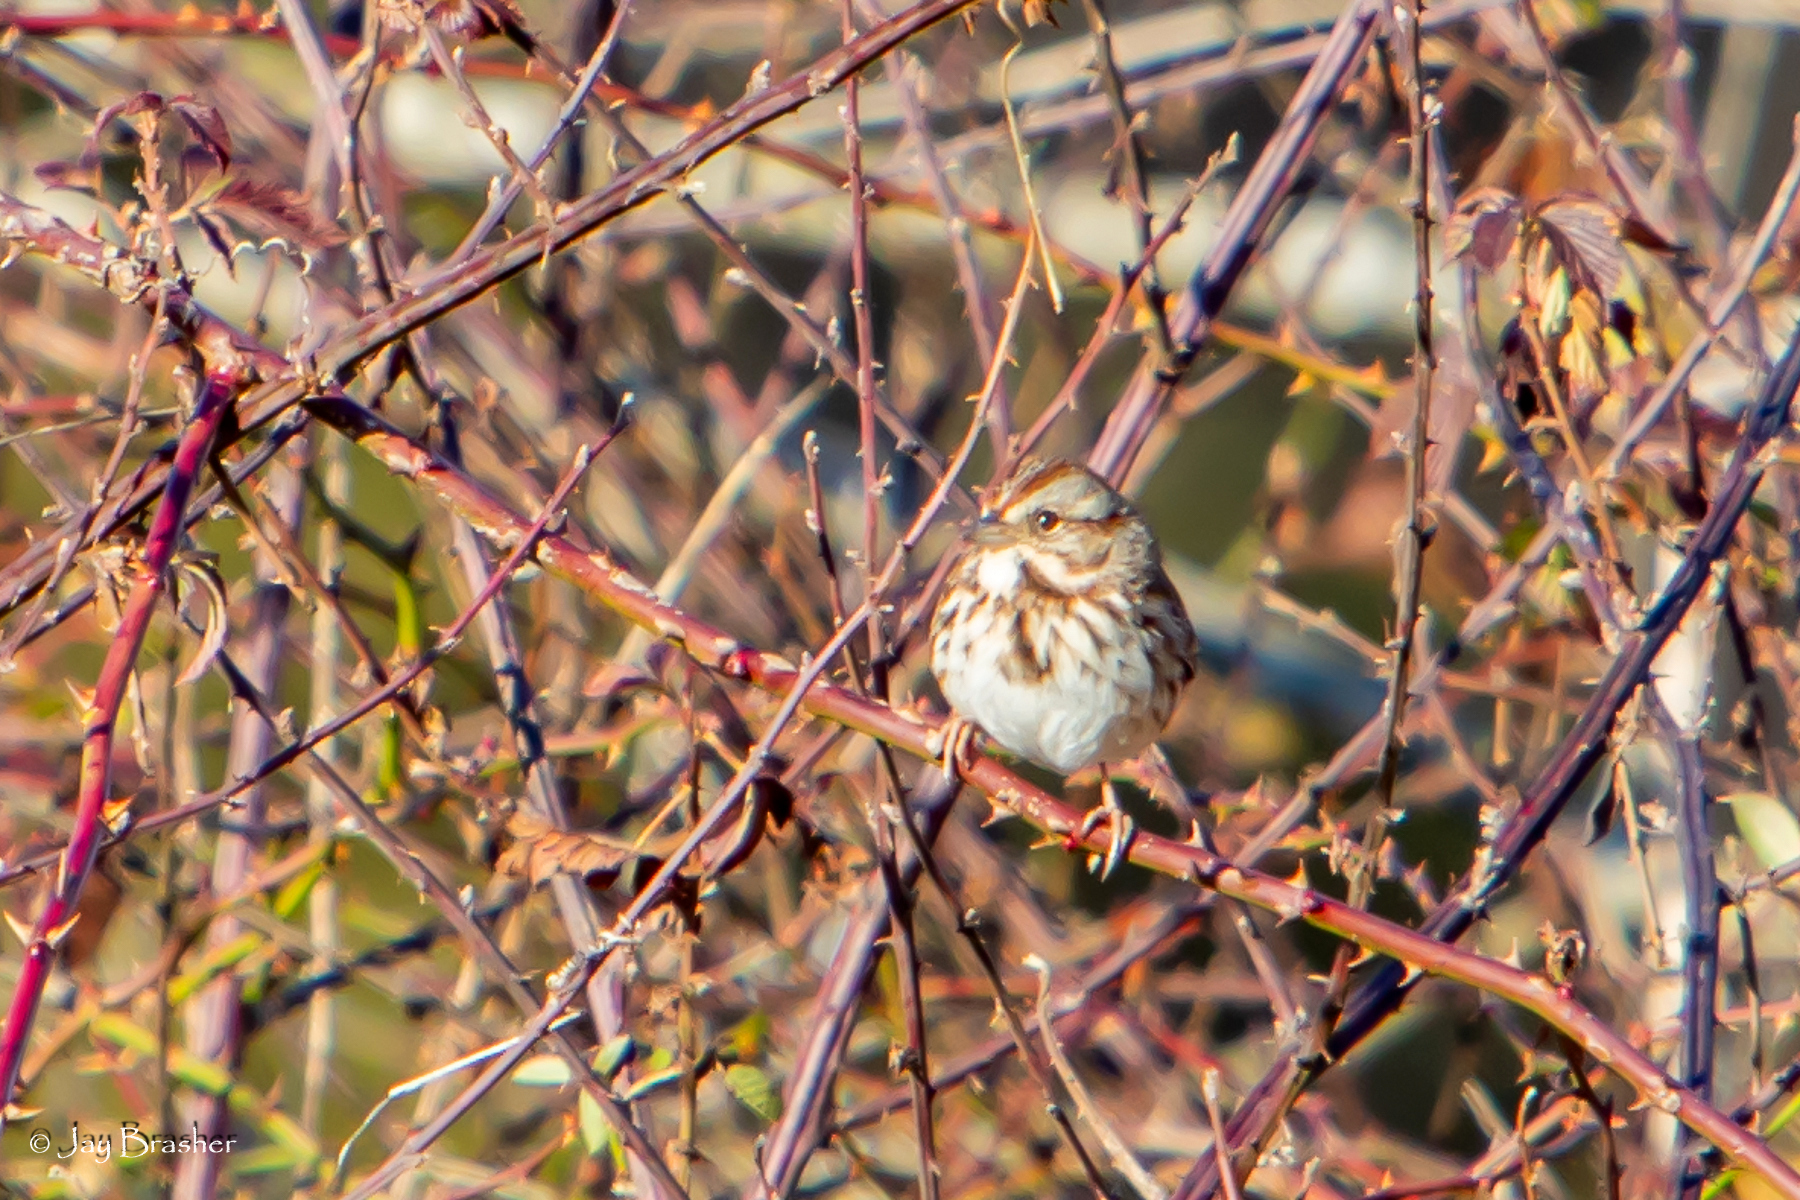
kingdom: Animalia
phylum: Chordata
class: Aves
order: Passeriformes
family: Passerellidae
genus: Melospiza
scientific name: Melospiza melodia
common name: Song sparrow
